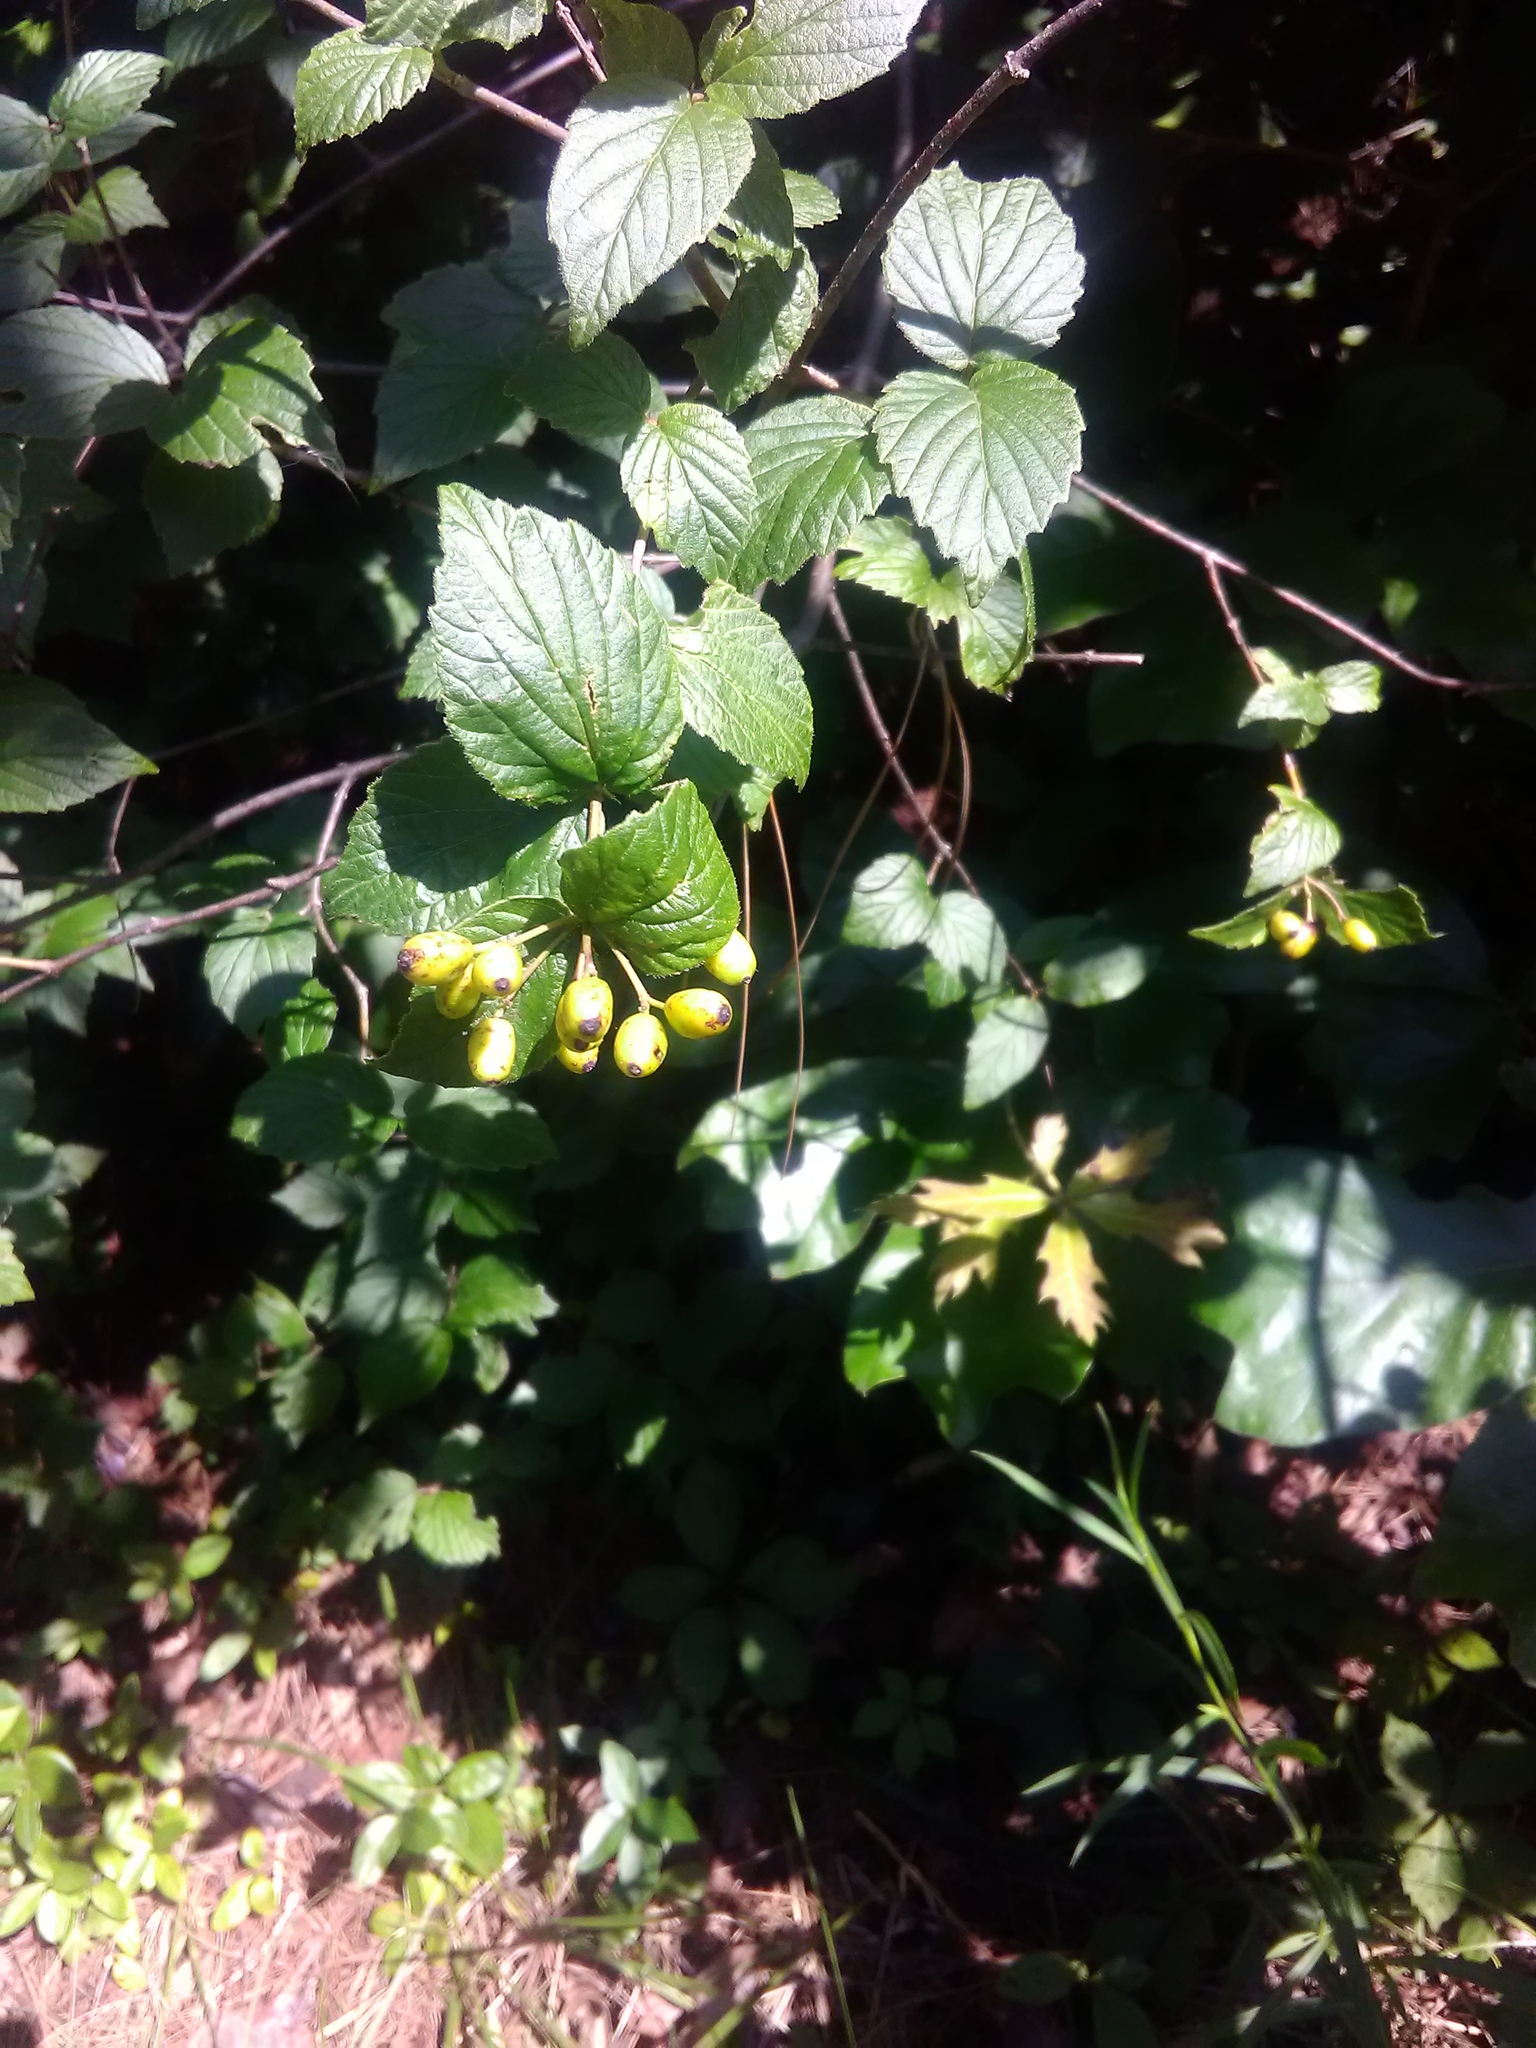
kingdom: Plantae
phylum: Tracheophyta
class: Magnoliopsida
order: Dipsacales
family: Viburnaceae
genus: Viburnum
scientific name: Viburnum rafinesqueanum
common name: Downy arrow-wood
